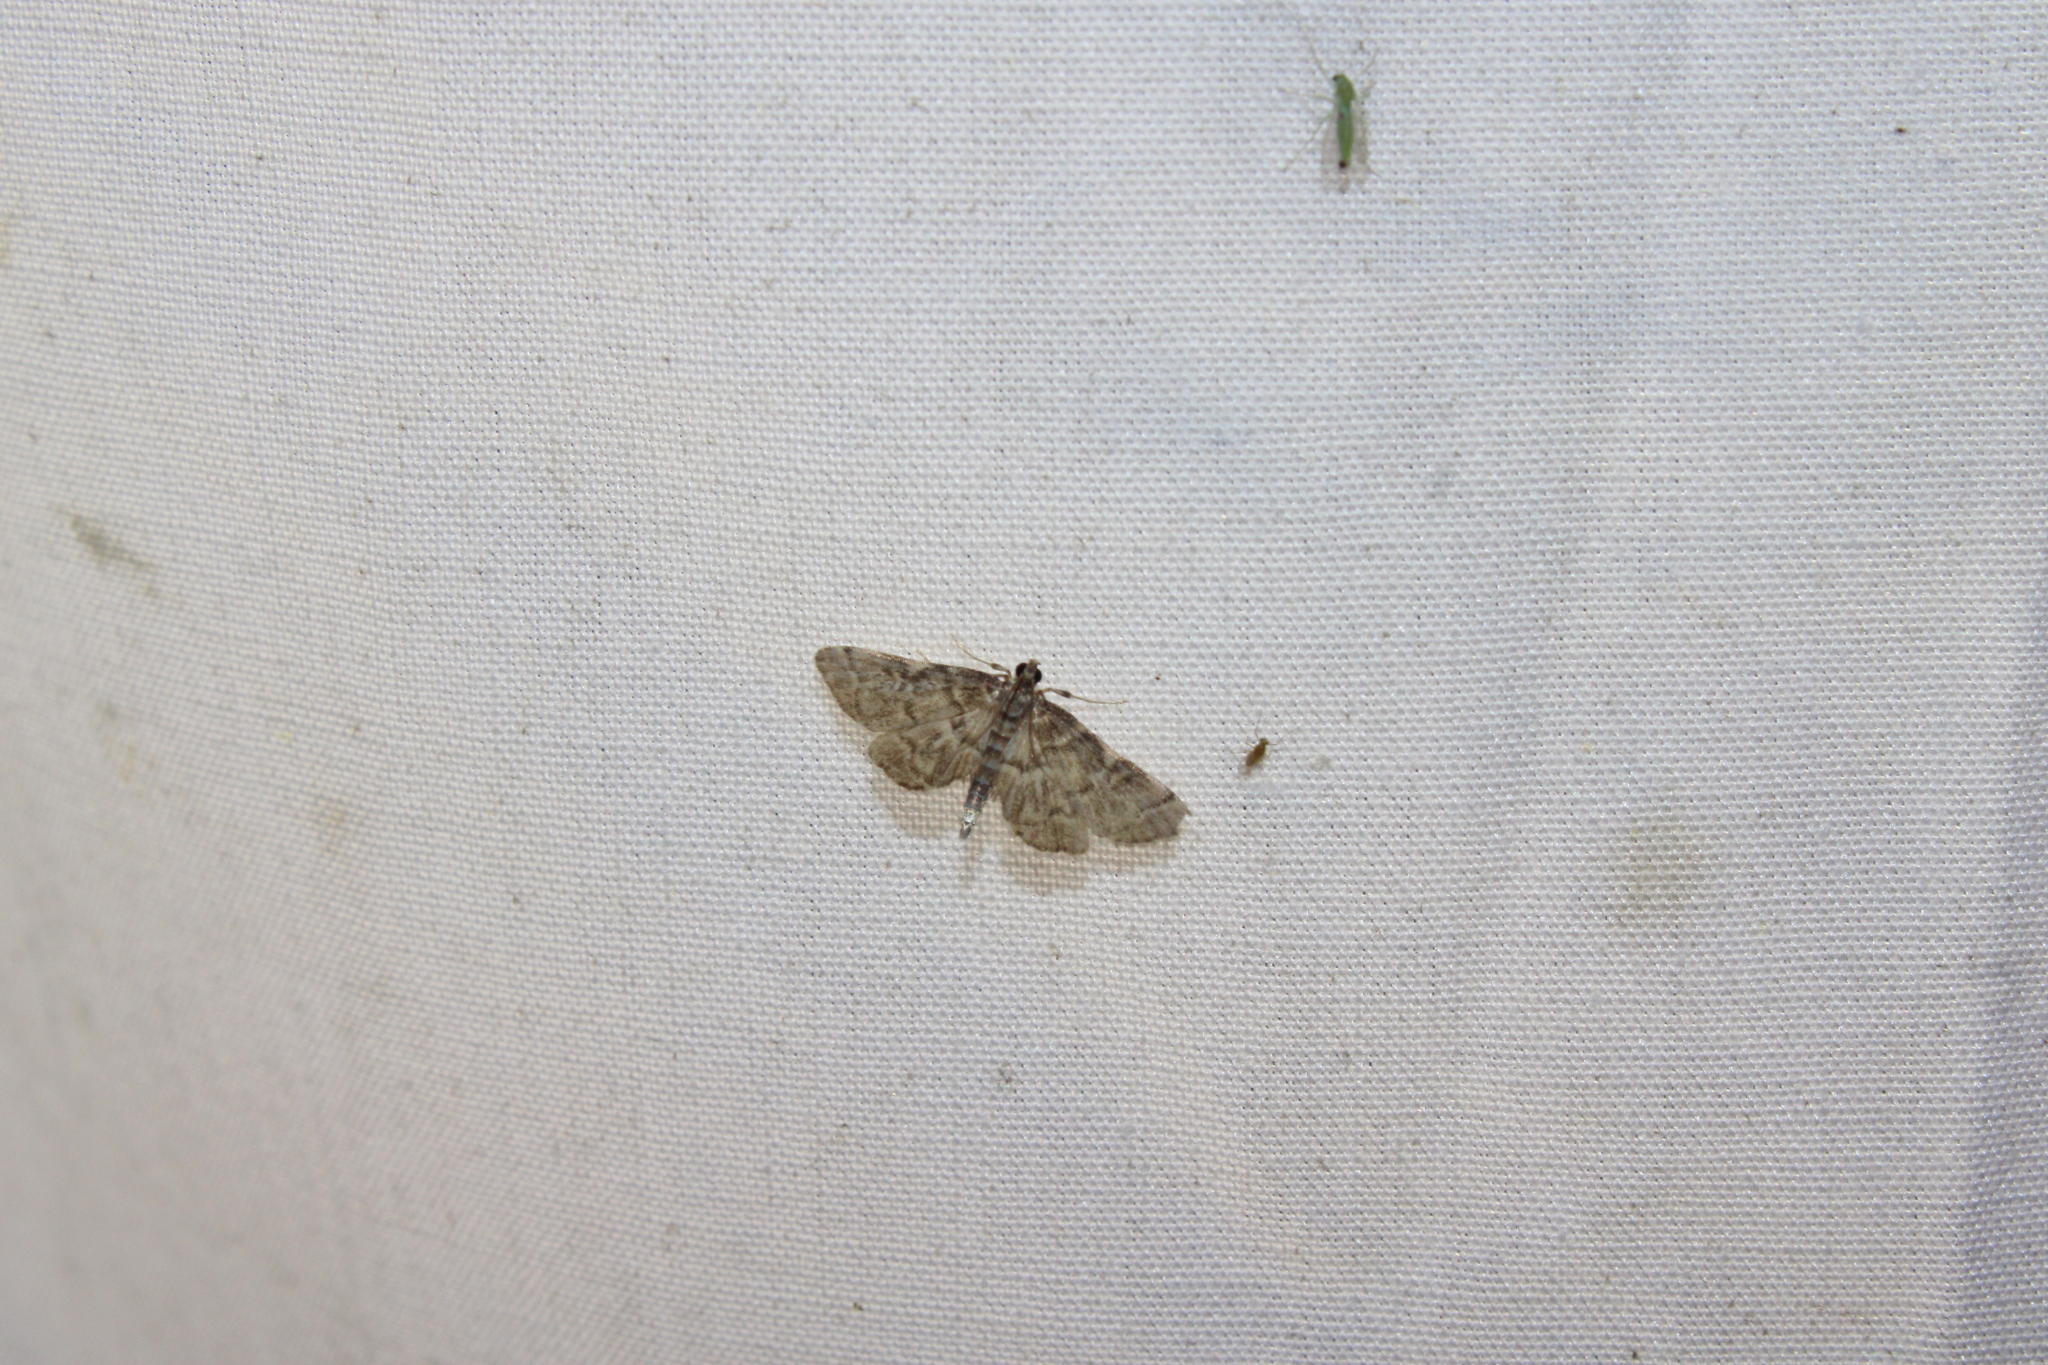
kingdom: Animalia
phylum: Arthropoda
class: Insecta
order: Lepidoptera
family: Crambidae
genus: Anageshna
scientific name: Anageshna primordialis
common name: Yellow-spotted webworm moth
